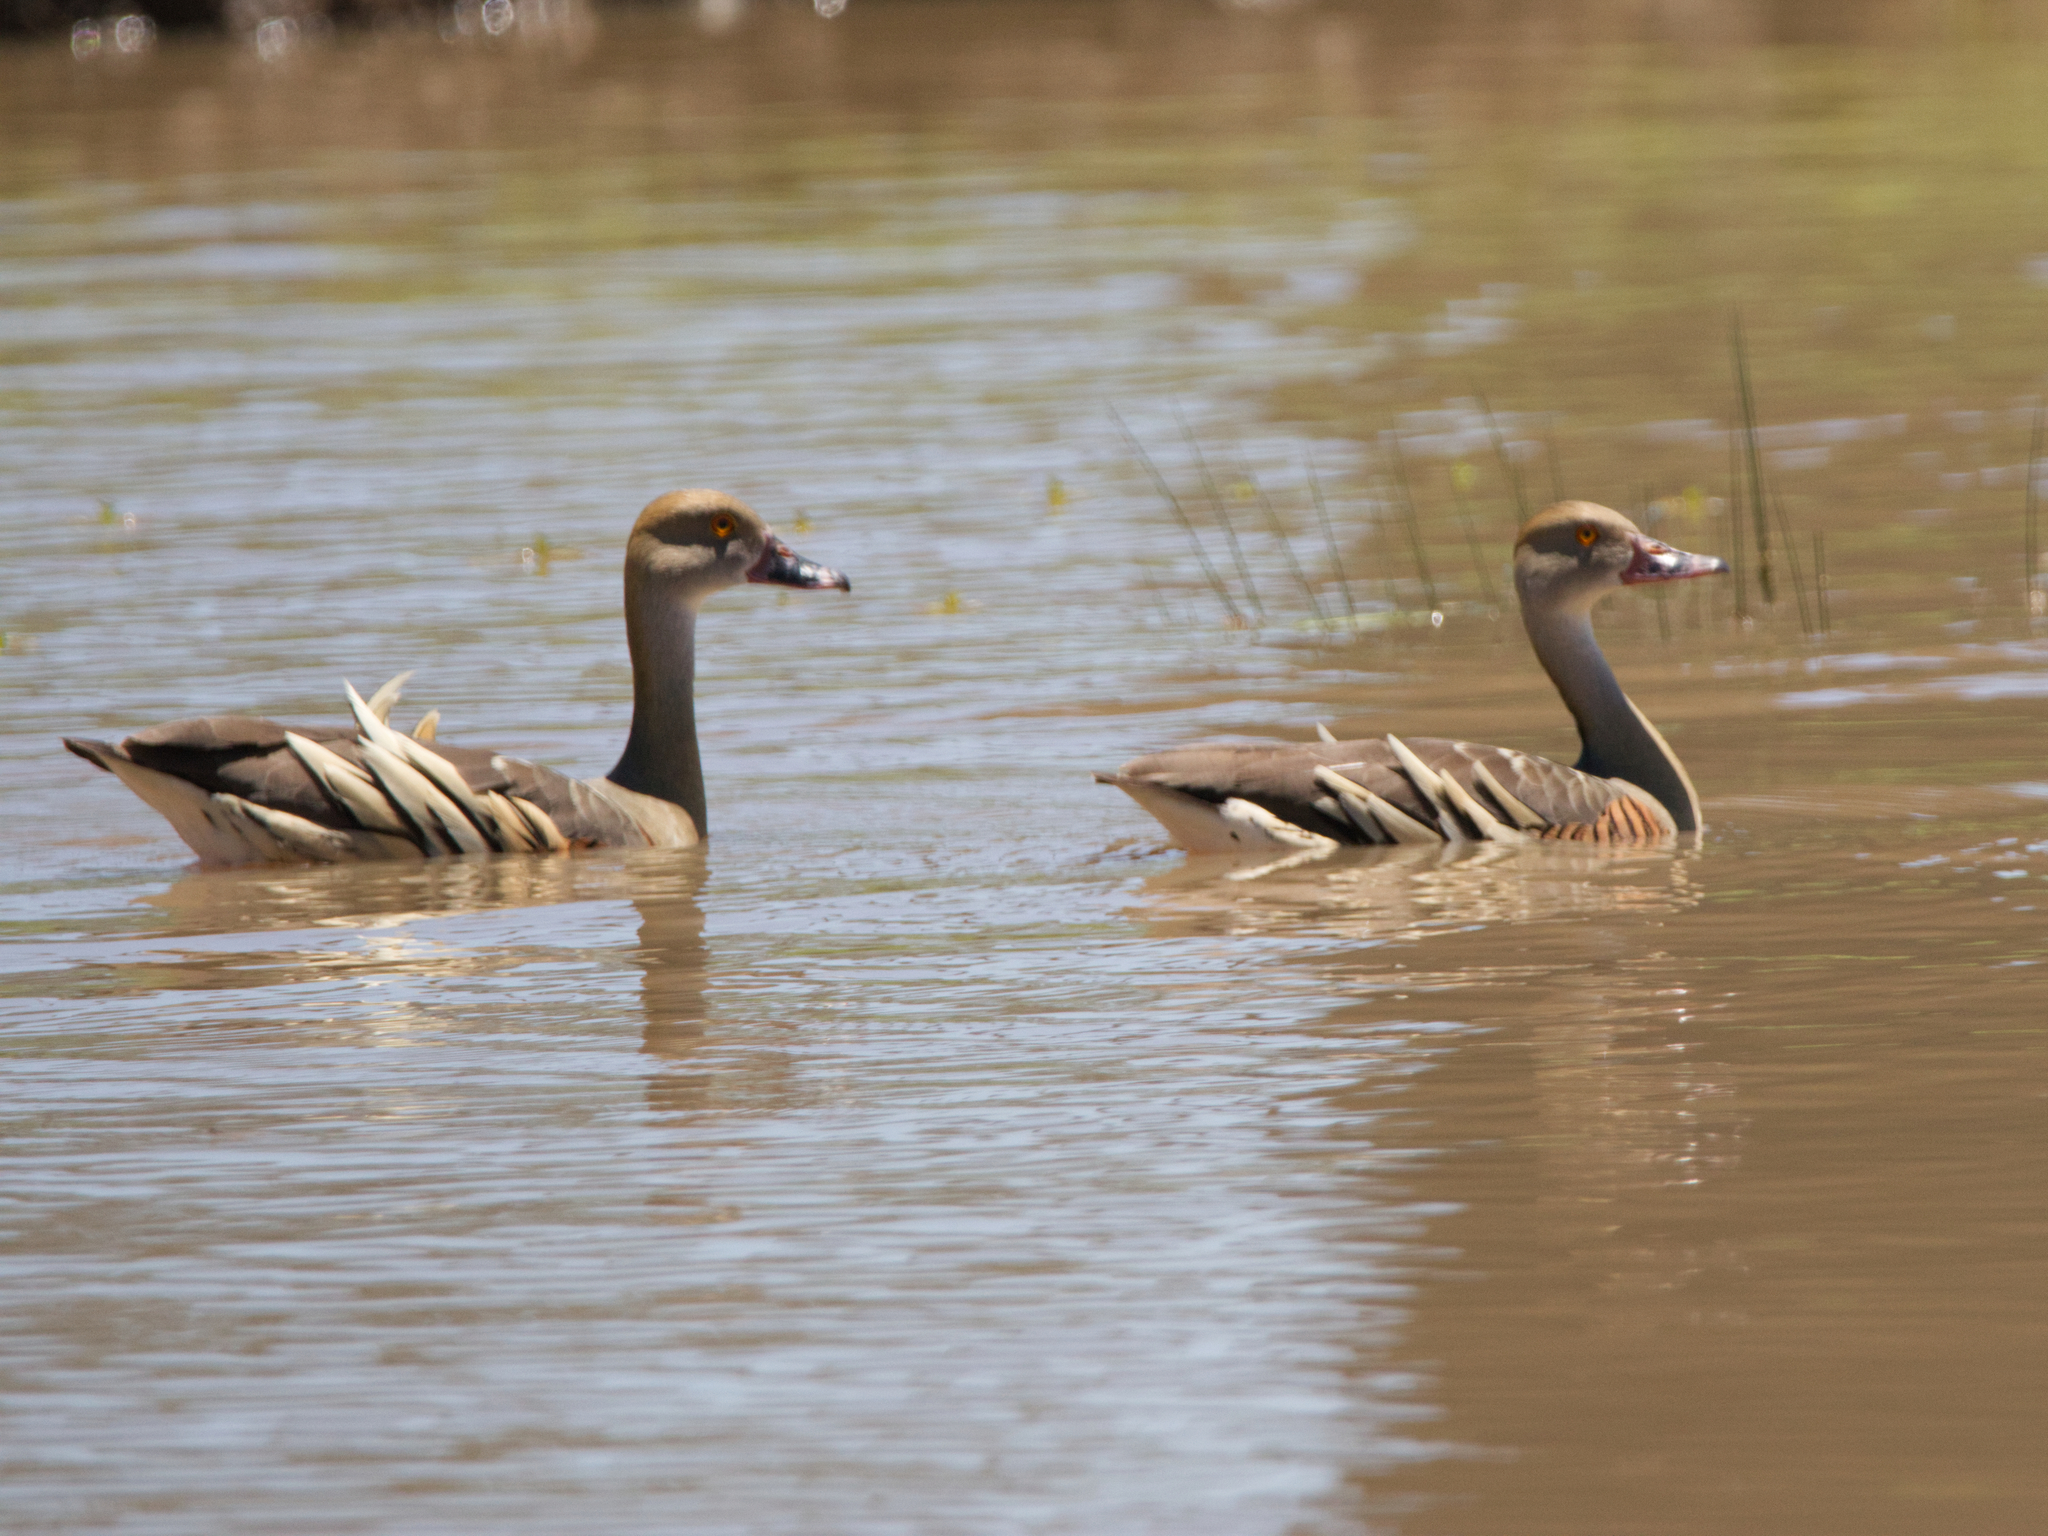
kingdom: Animalia
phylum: Chordata
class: Aves
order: Anseriformes
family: Anatidae
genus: Dendrocygna
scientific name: Dendrocygna eytoni
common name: Plumed whistling-duck
